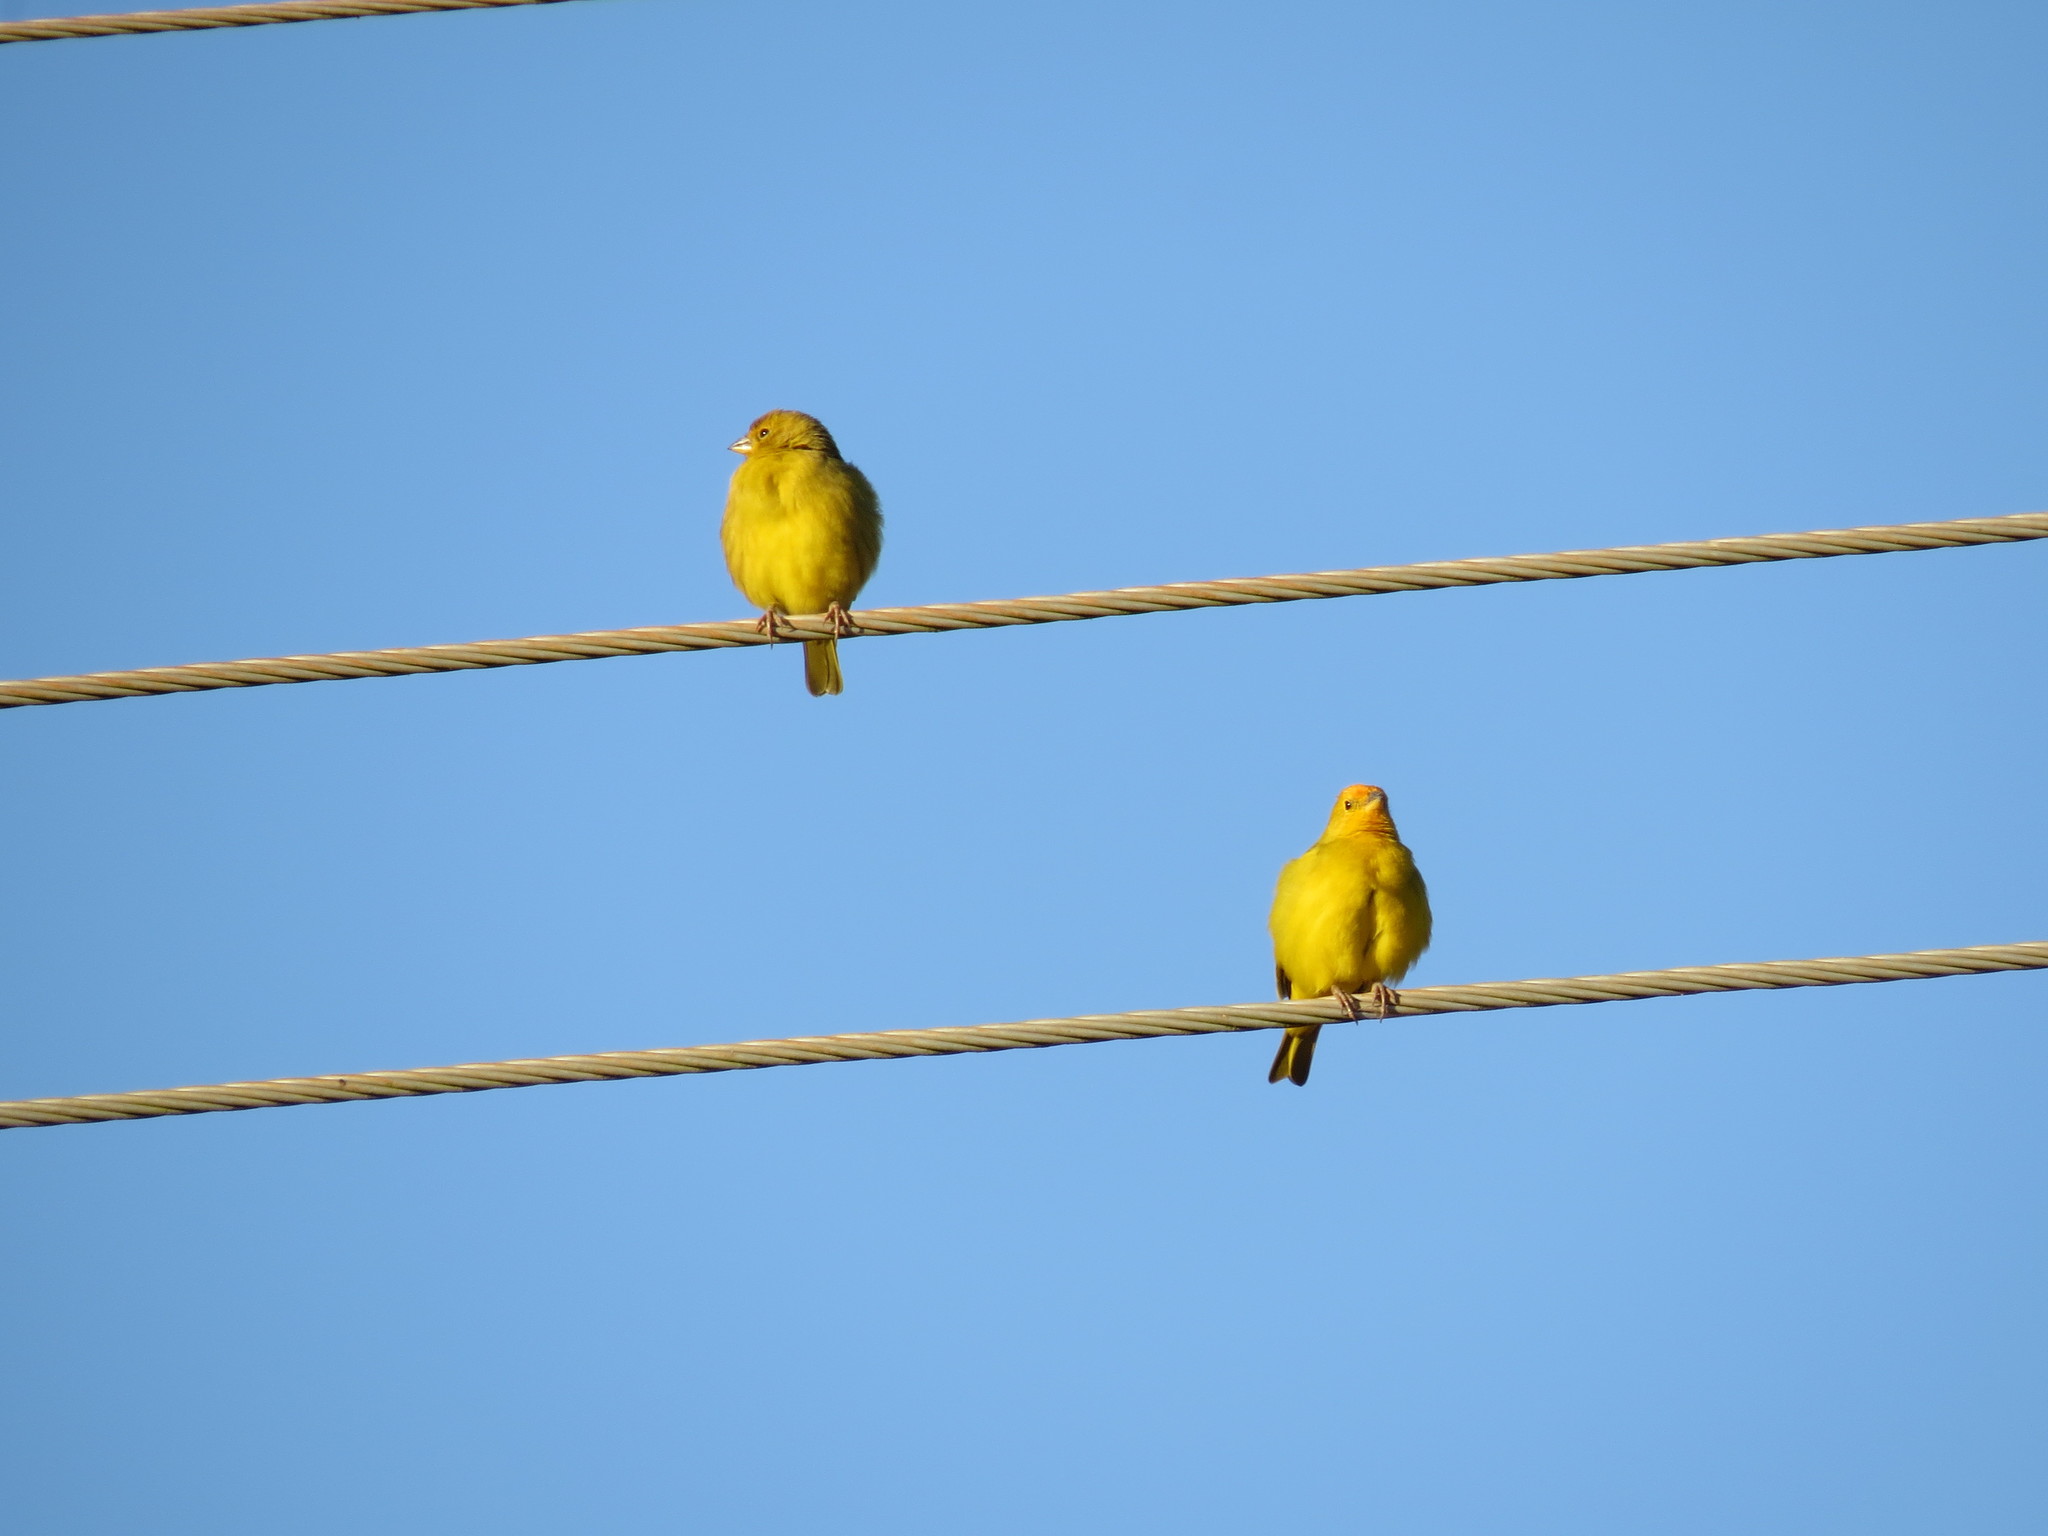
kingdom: Animalia
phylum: Chordata
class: Aves
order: Passeriformes
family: Thraupidae
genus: Sicalis
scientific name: Sicalis flaveola
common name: Saffron finch
